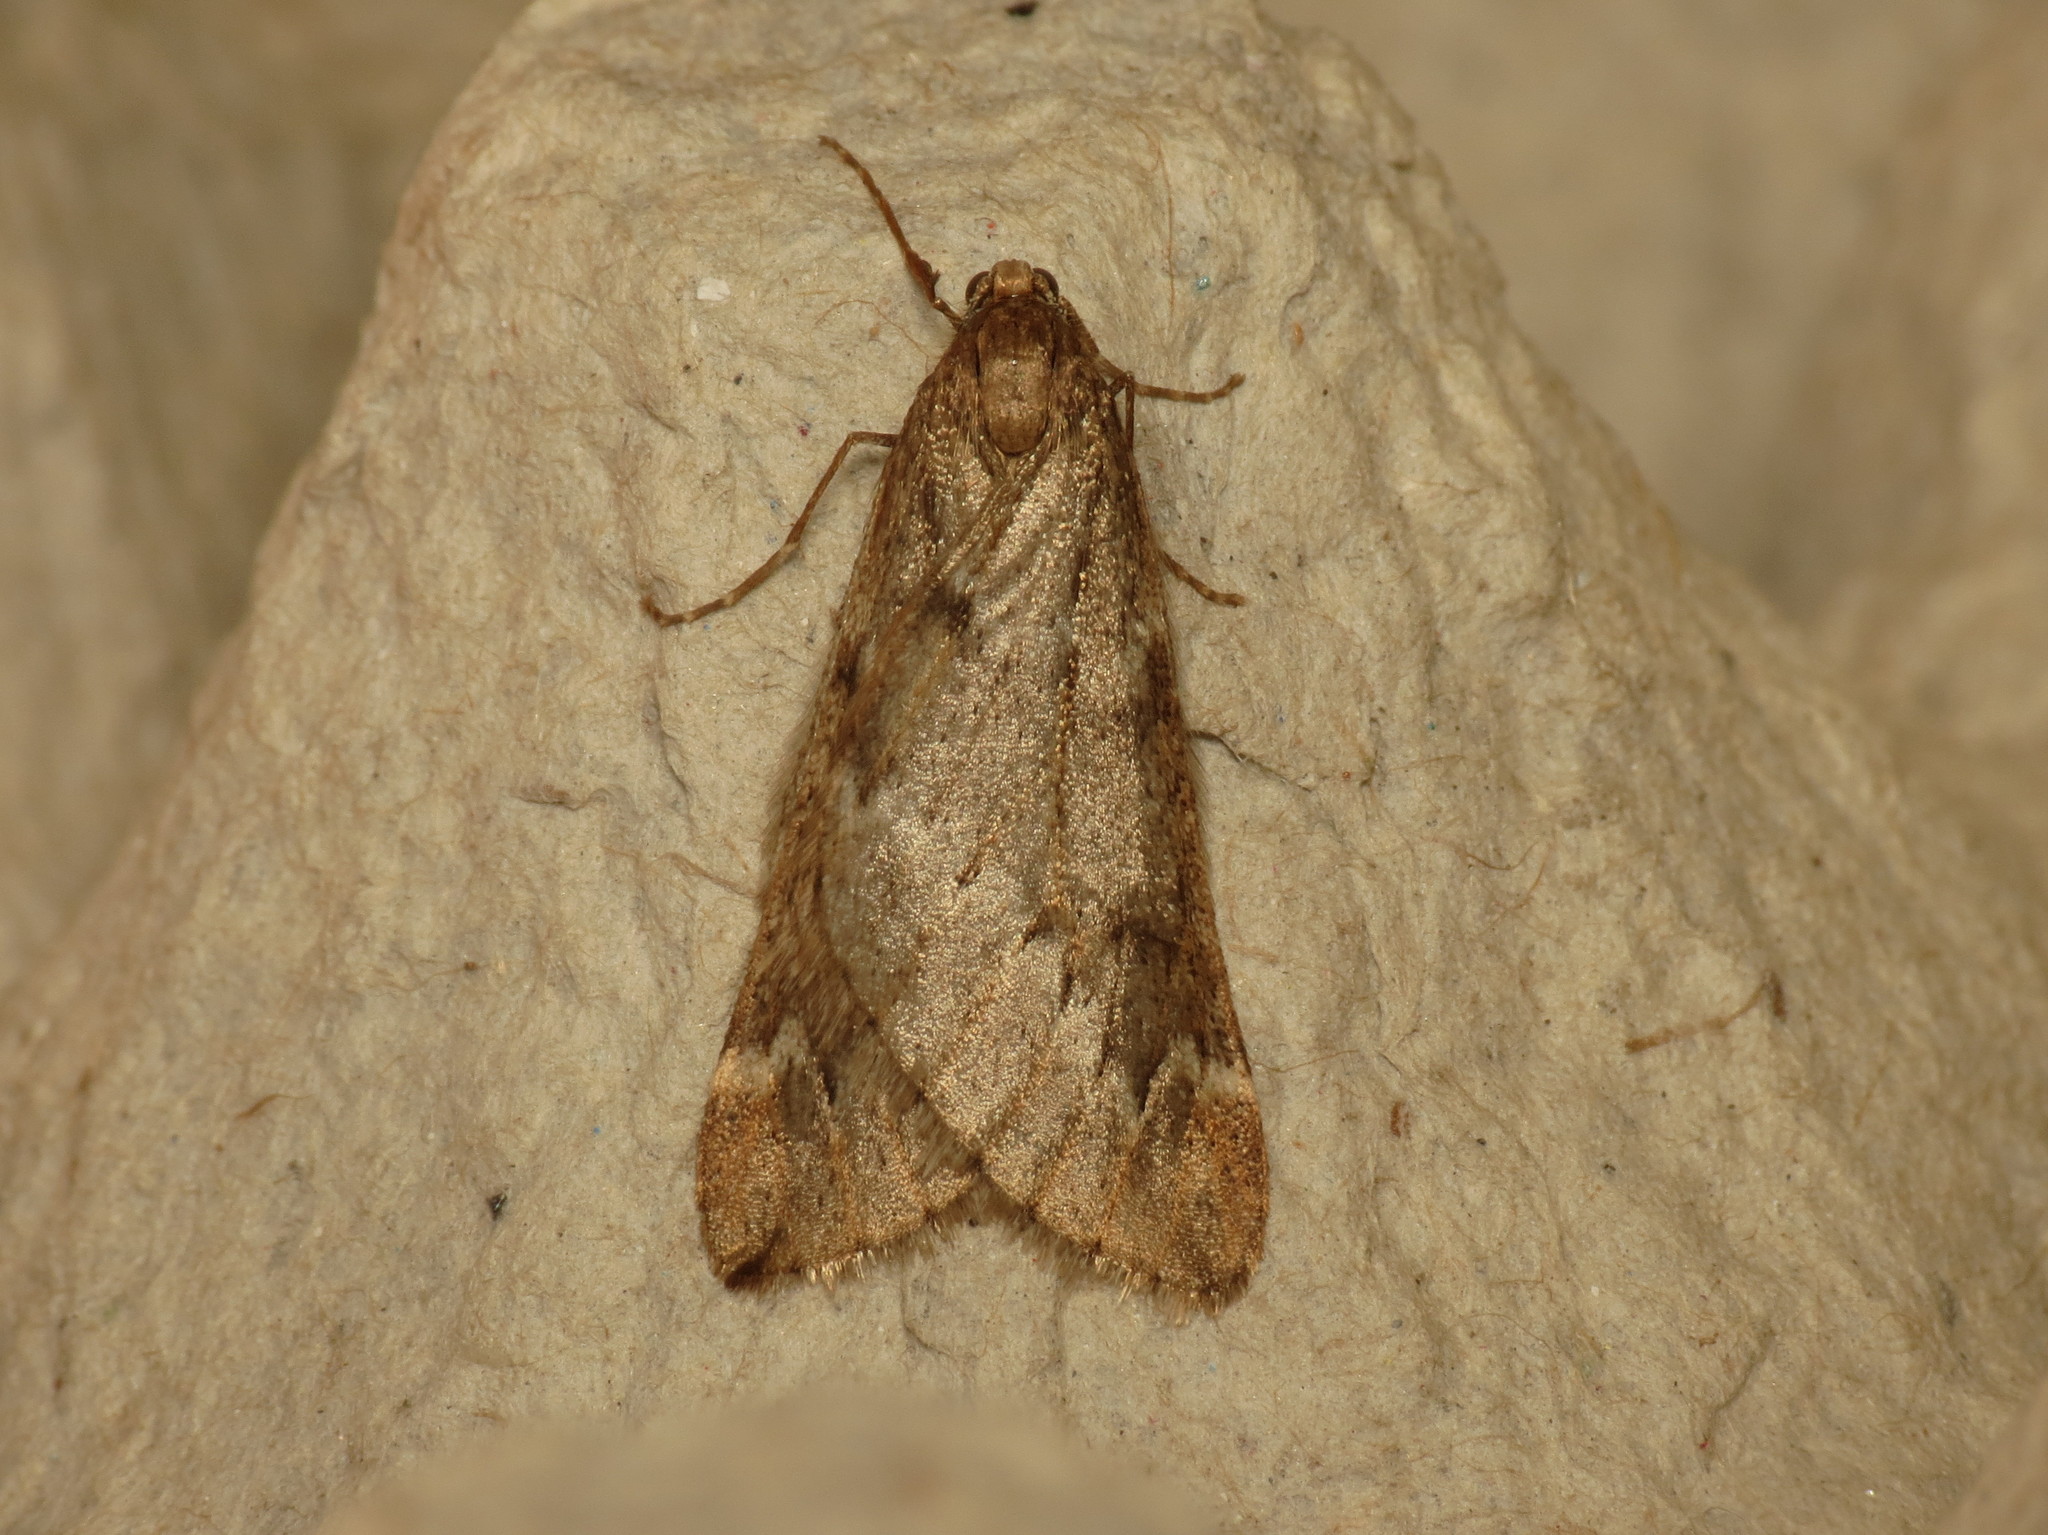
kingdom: Animalia
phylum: Arthropoda
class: Insecta
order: Lepidoptera
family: Geometridae
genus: Alsophila
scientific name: Alsophila aescularia
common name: March moth
